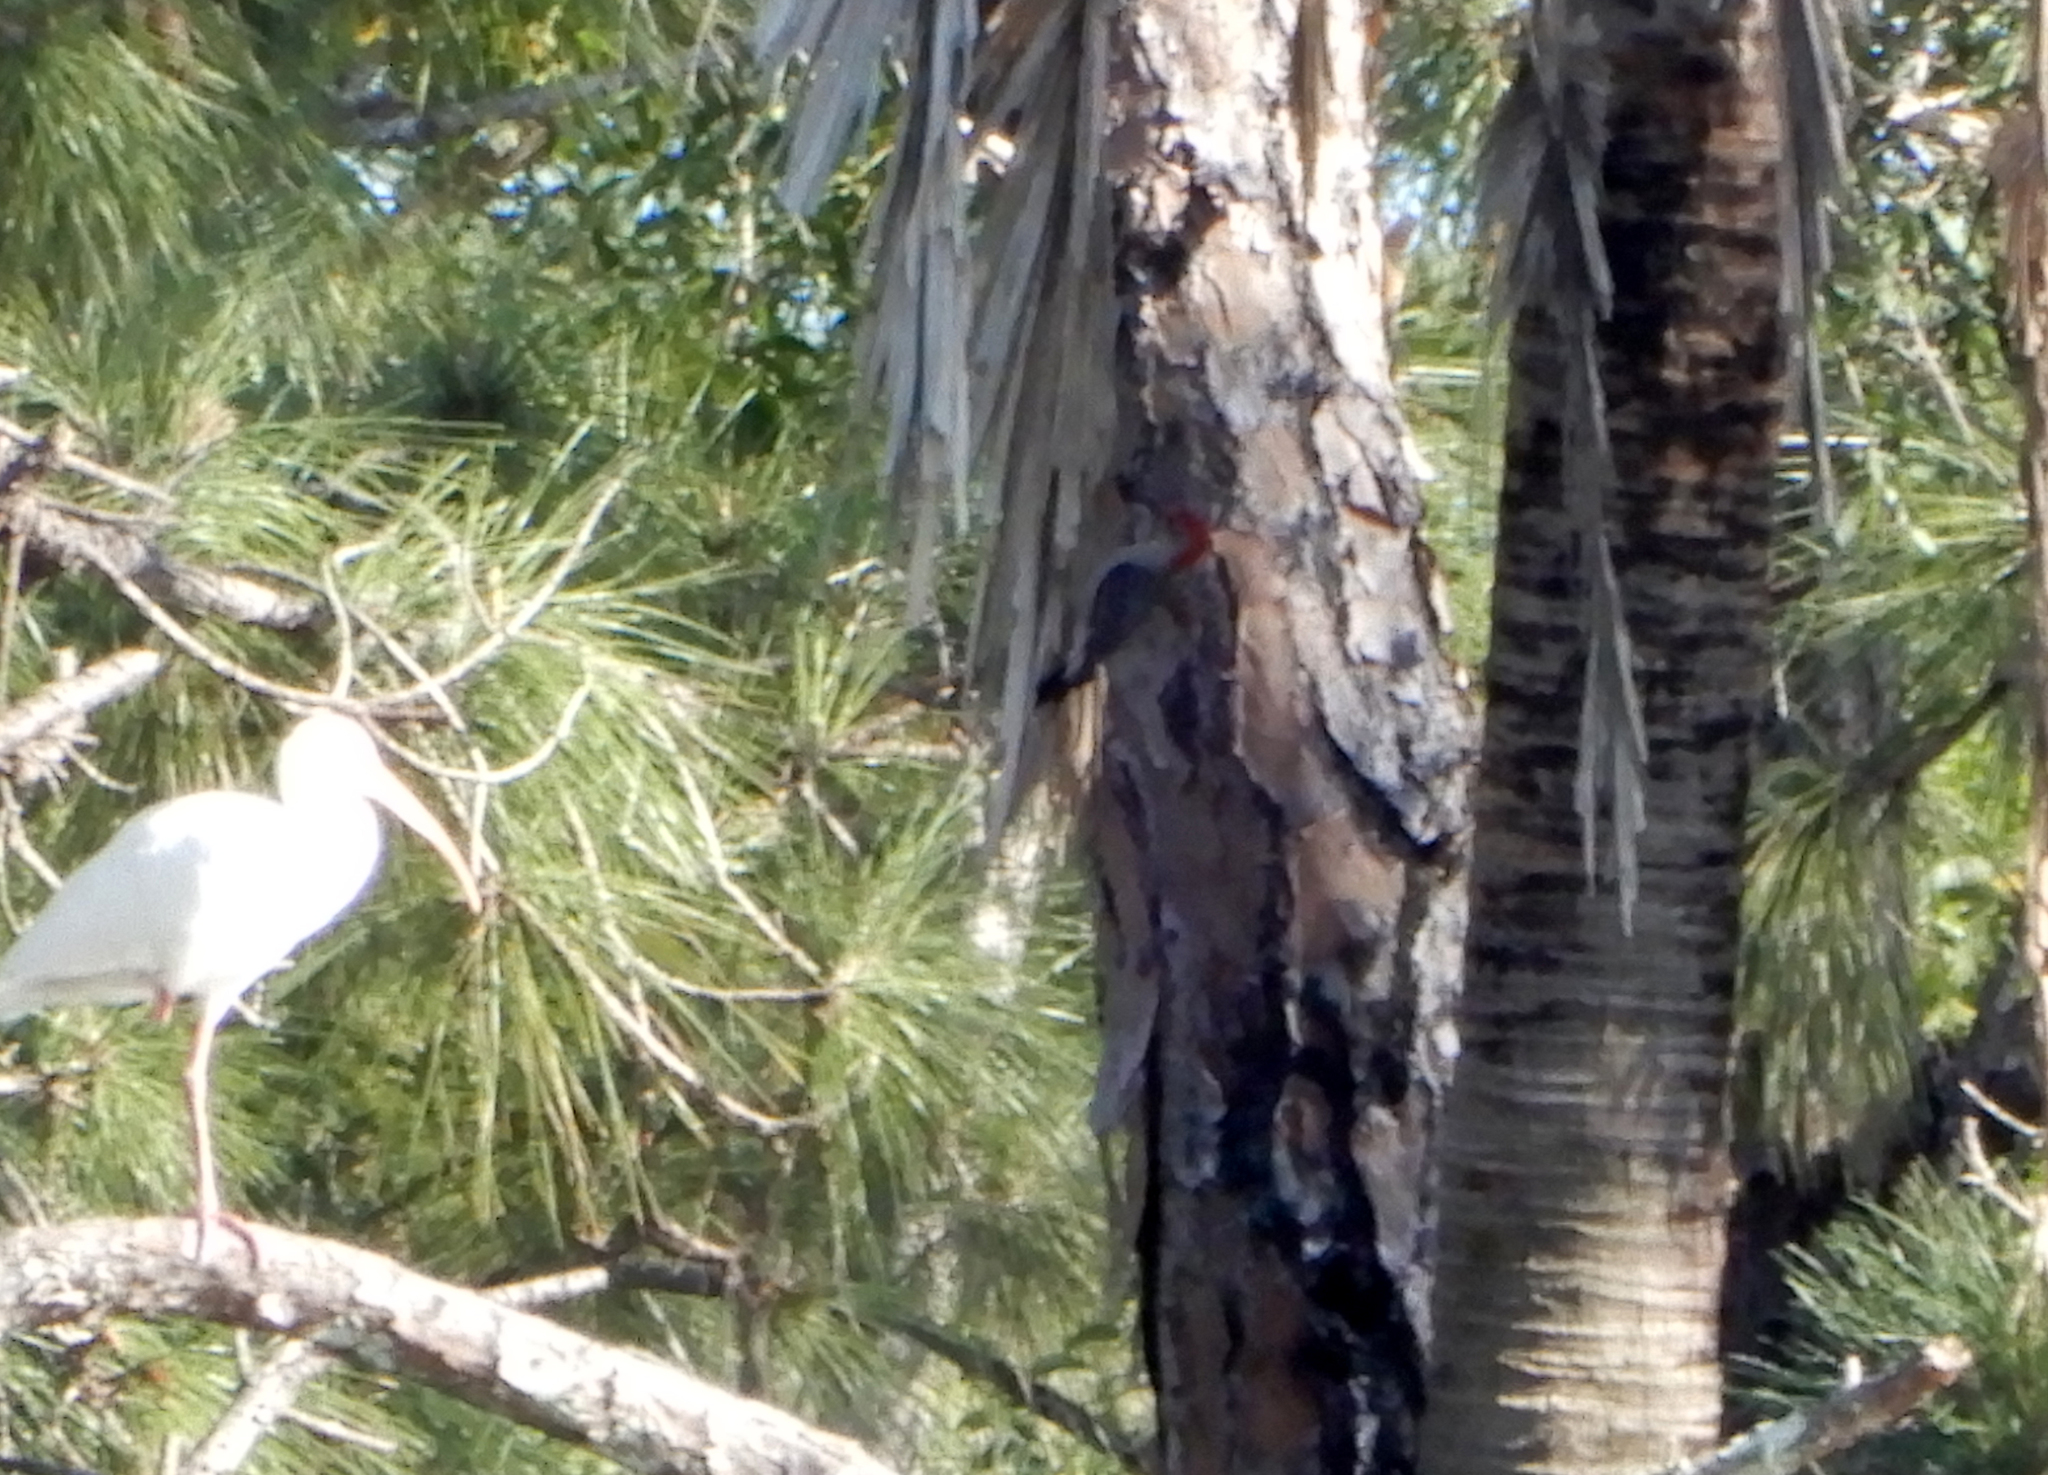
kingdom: Animalia
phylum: Chordata
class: Aves
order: Piciformes
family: Picidae
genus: Melanerpes
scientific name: Melanerpes carolinus
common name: Red-bellied woodpecker
